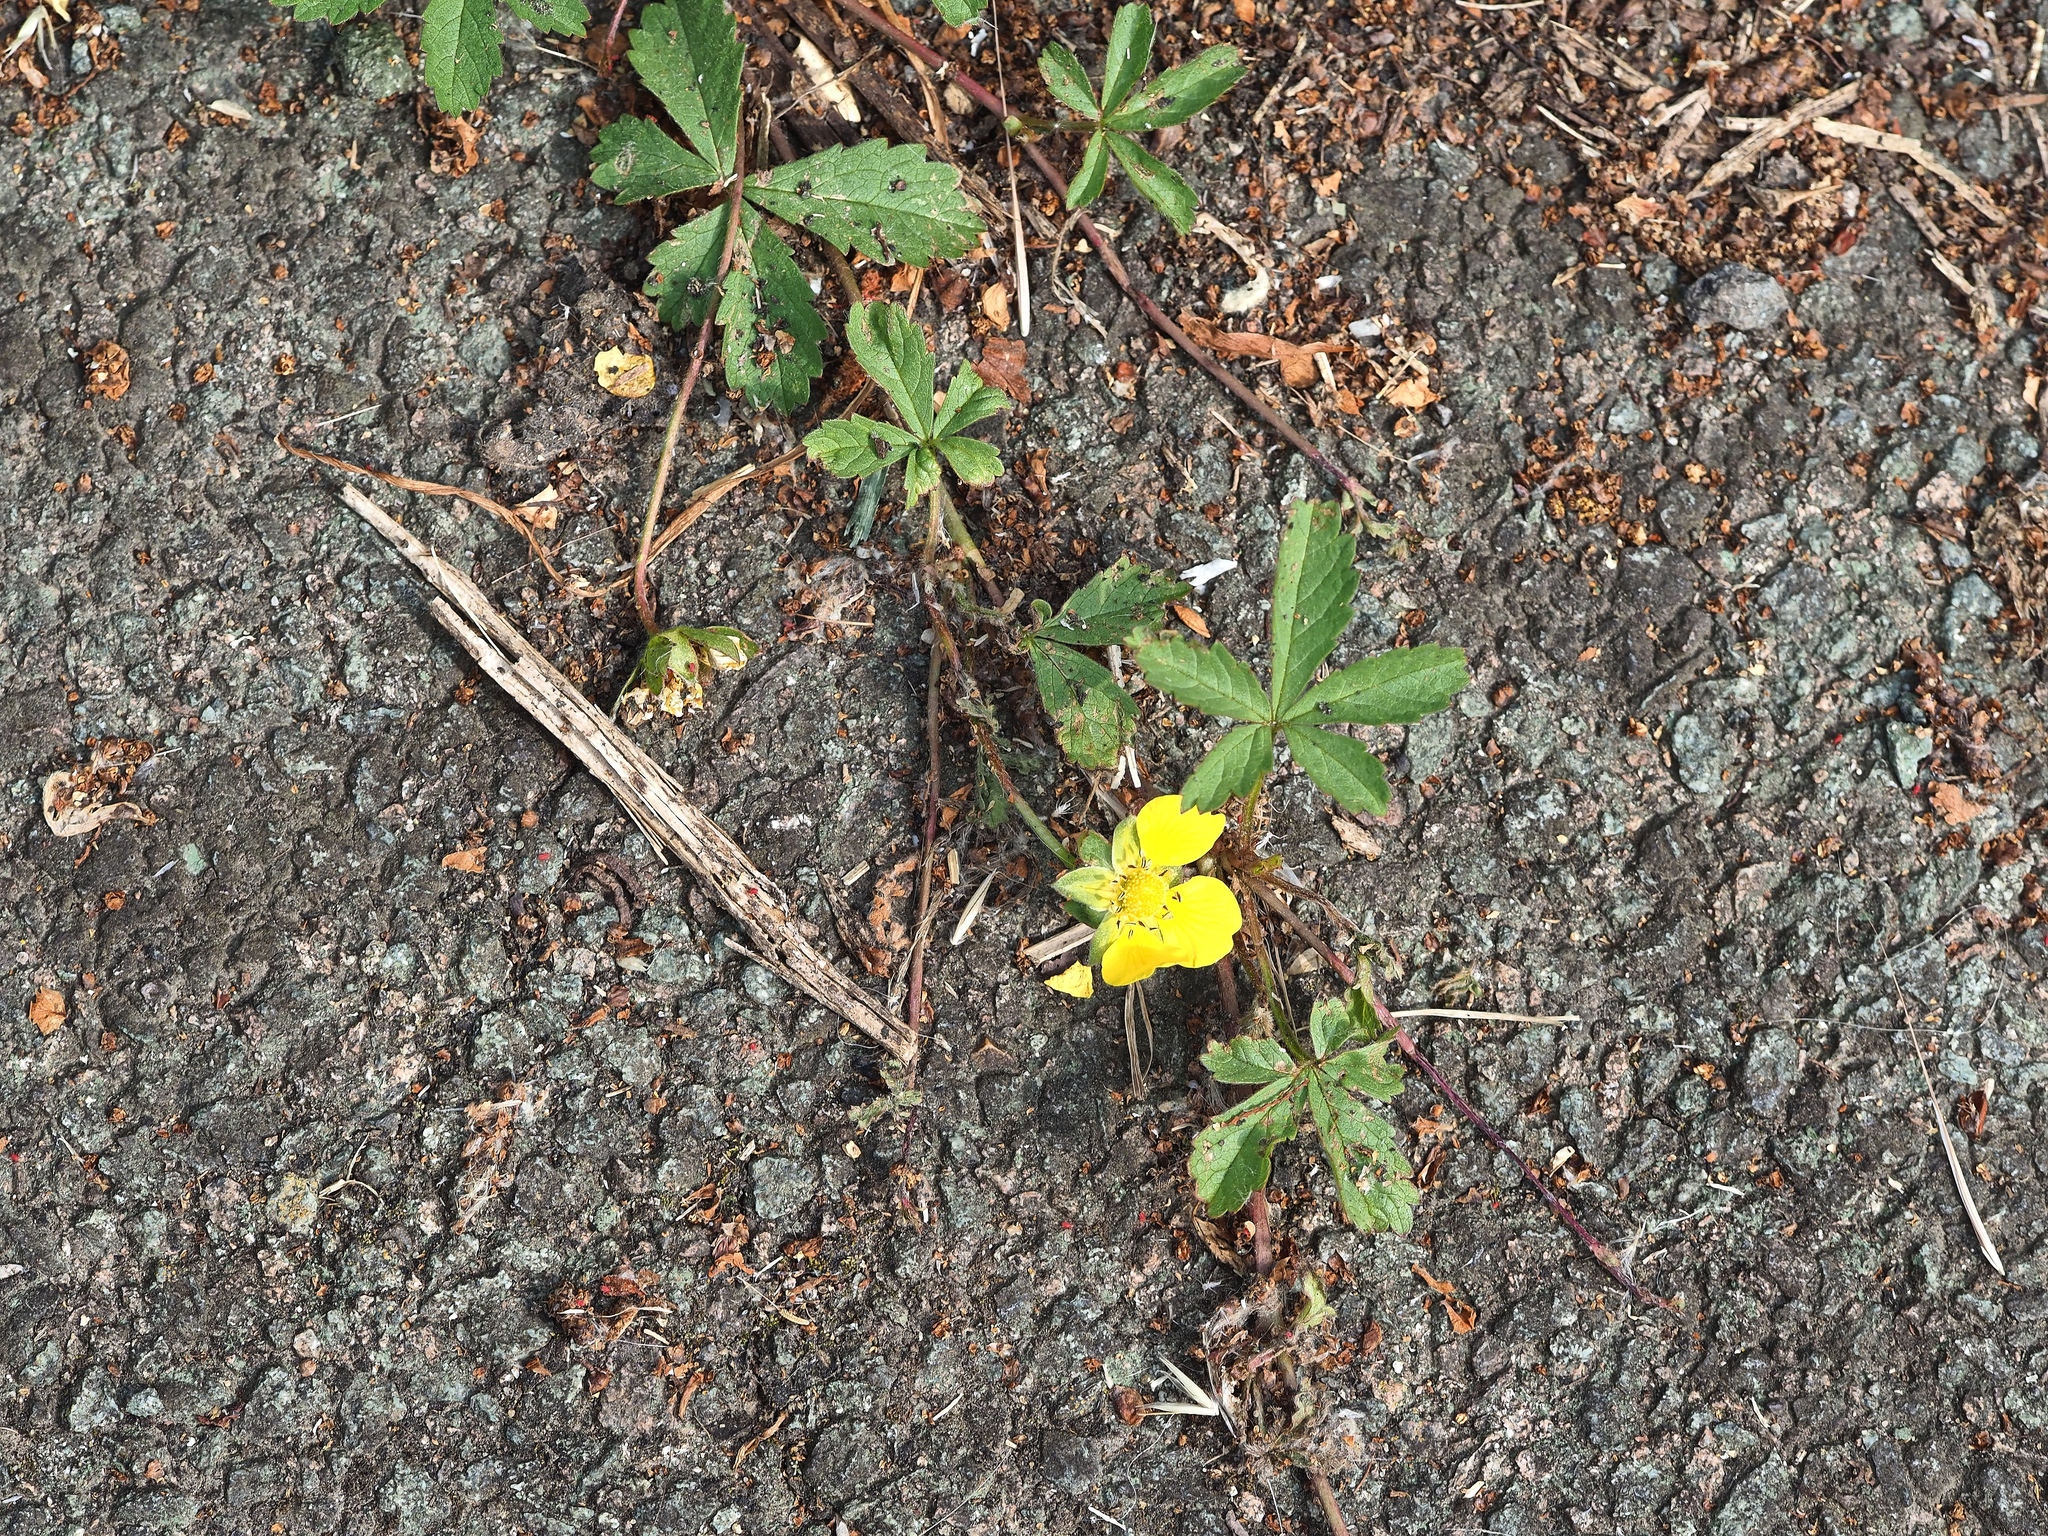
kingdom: Plantae
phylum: Tracheophyta
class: Magnoliopsida
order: Rosales
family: Rosaceae
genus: Potentilla
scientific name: Potentilla reptans
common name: Creeping cinquefoil
